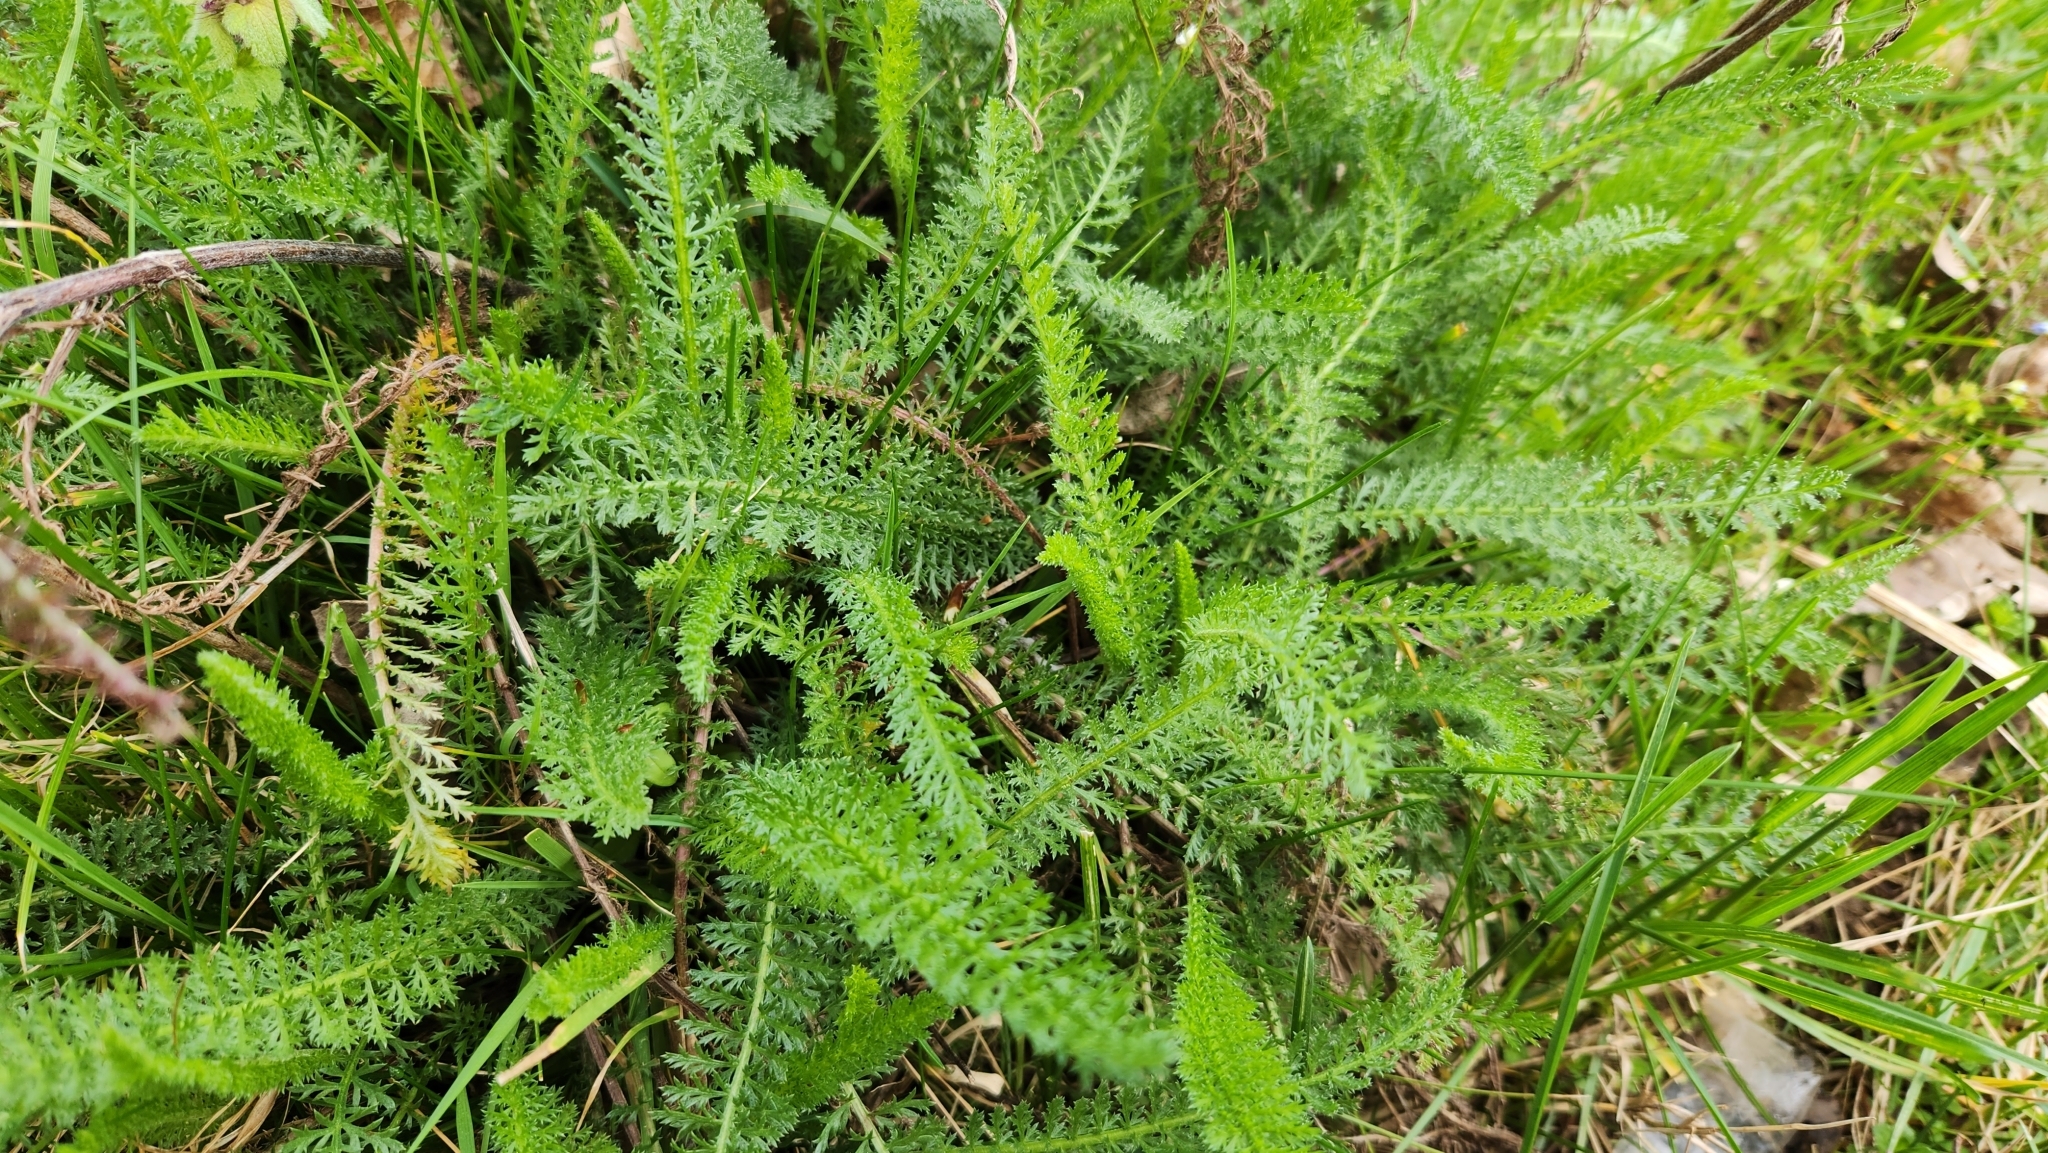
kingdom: Plantae
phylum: Tracheophyta
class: Magnoliopsida
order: Asterales
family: Asteraceae
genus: Achillea
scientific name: Achillea millefolium
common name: Yarrow
